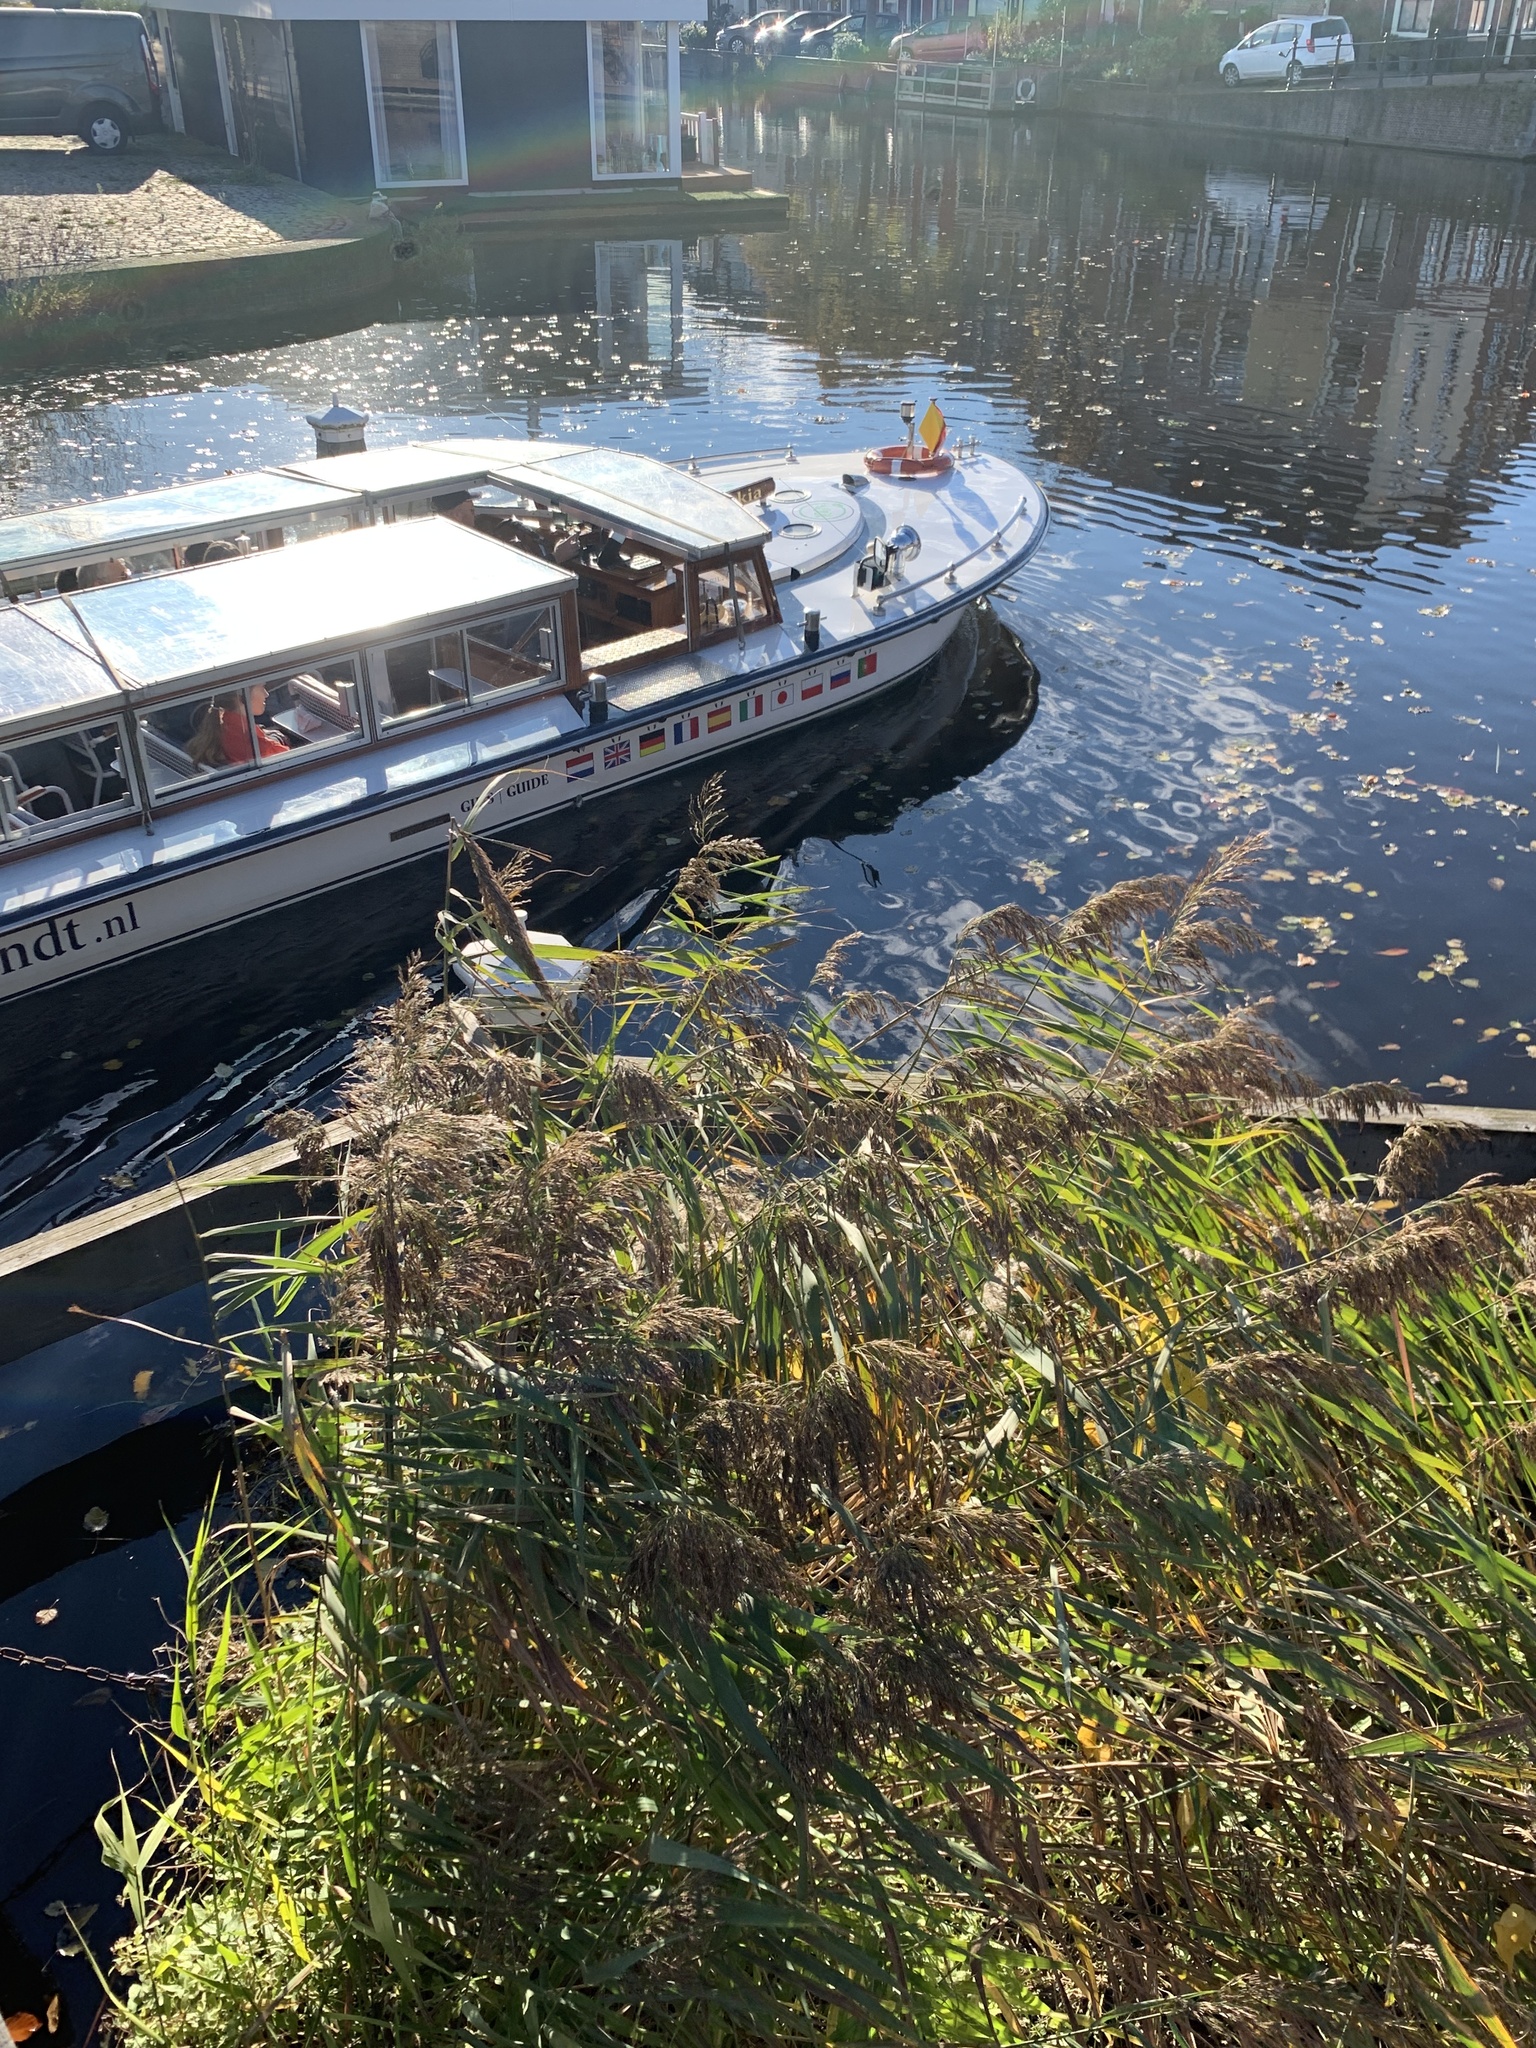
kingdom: Plantae
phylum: Tracheophyta
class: Liliopsida
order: Poales
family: Poaceae
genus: Phragmites
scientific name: Phragmites australis
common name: Common reed
